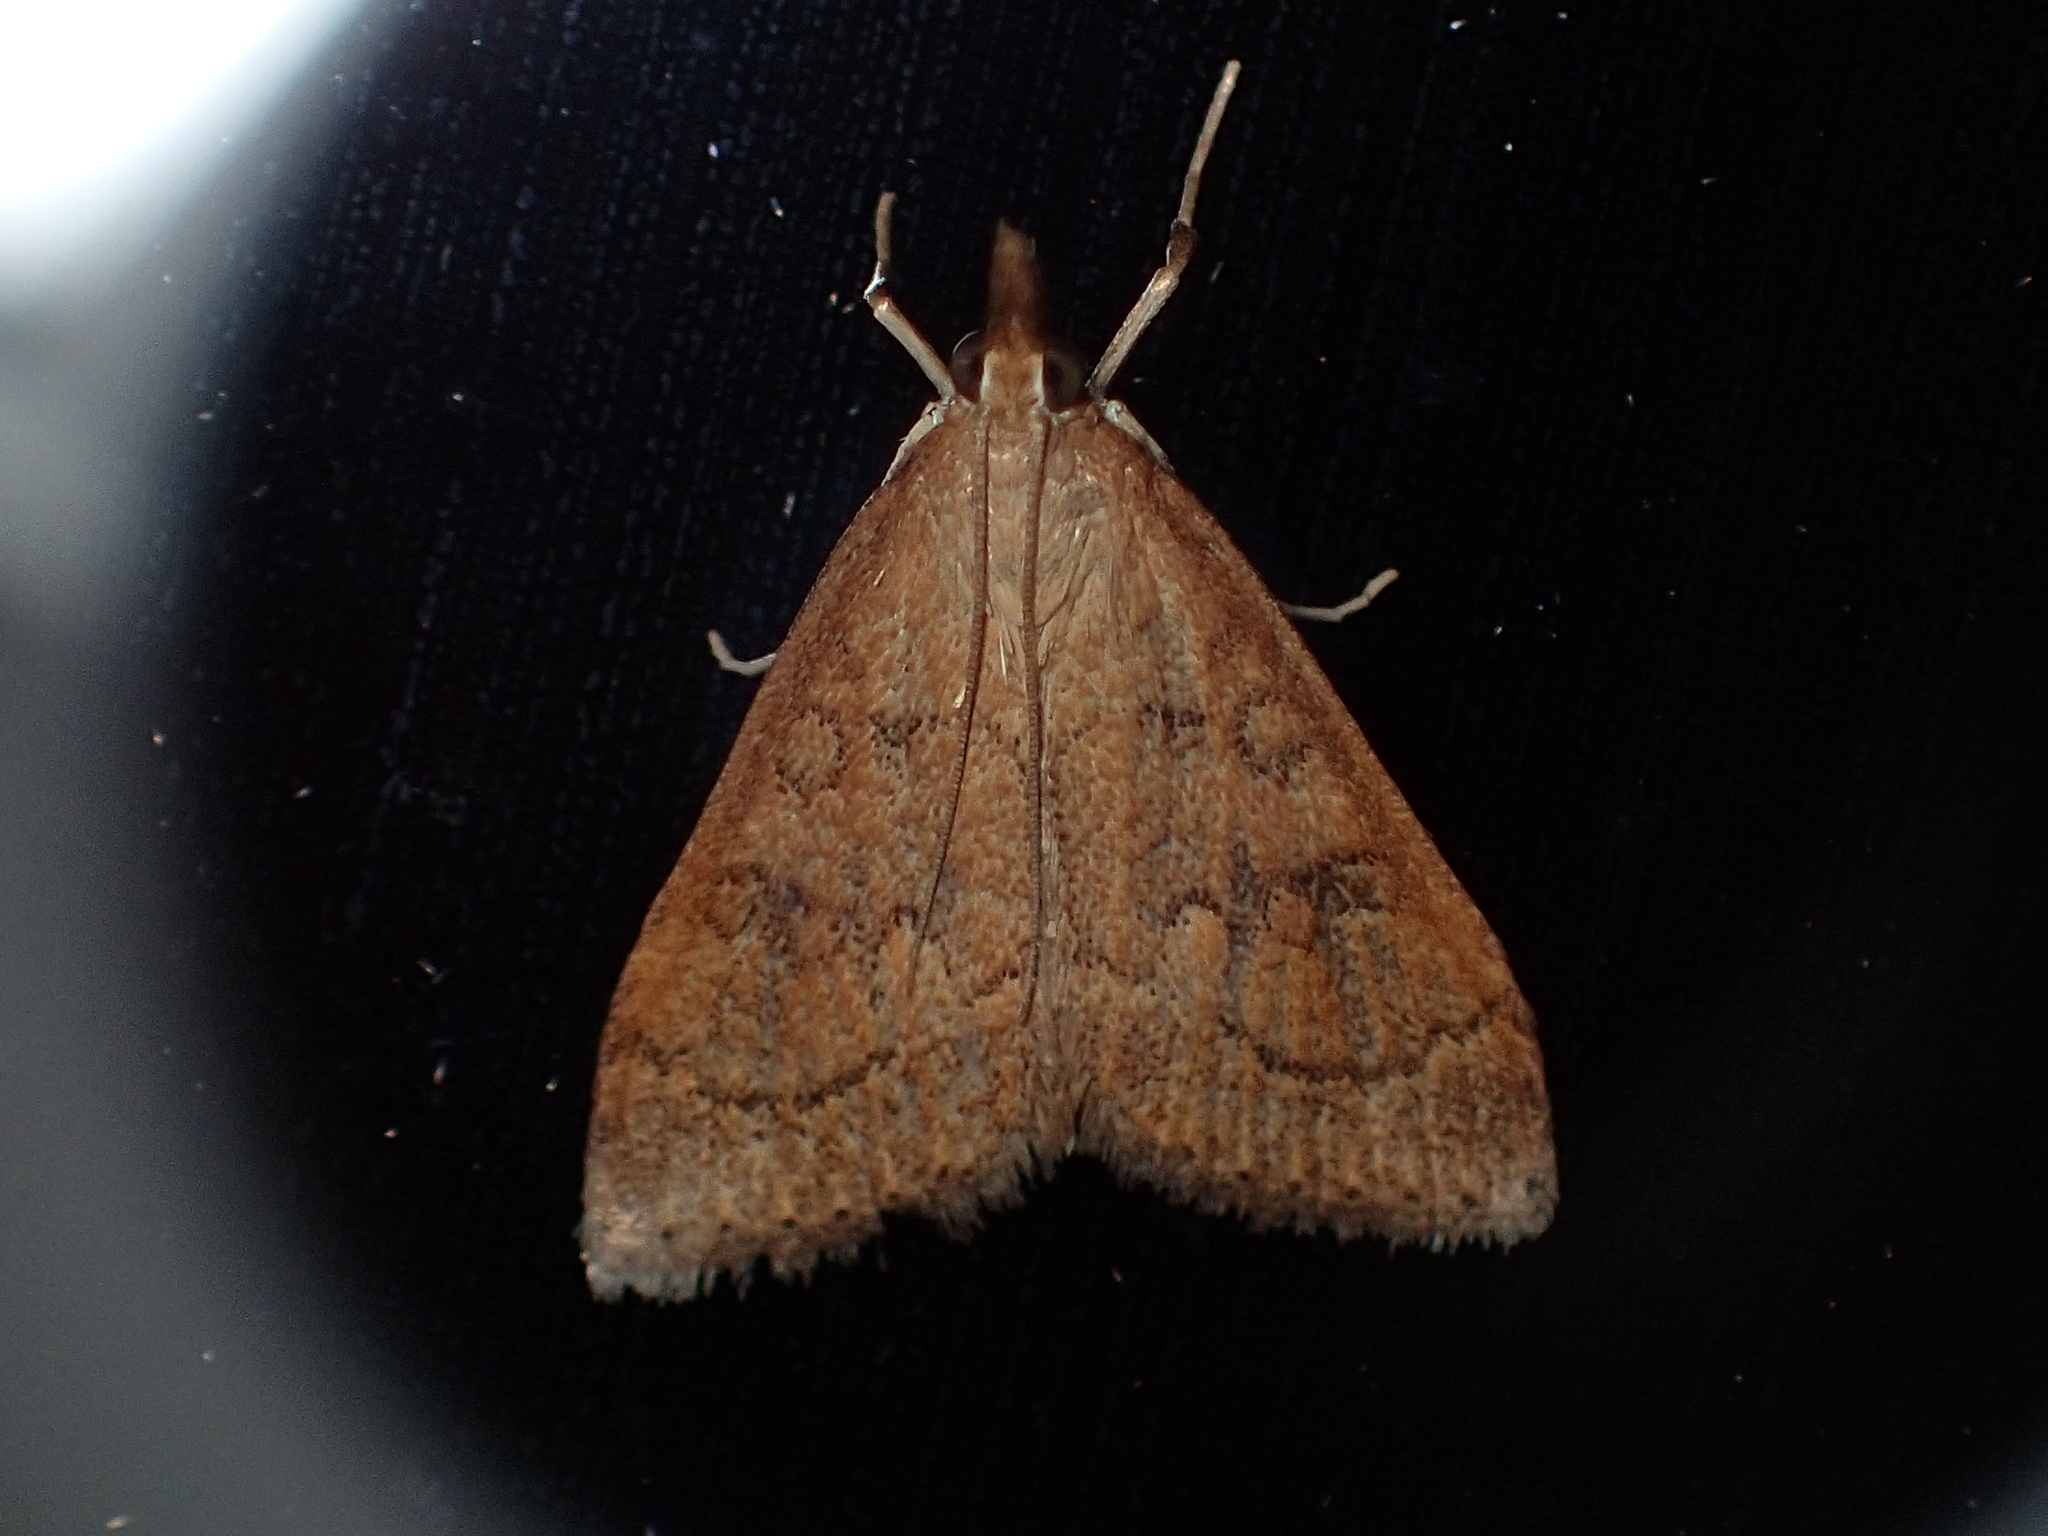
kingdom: Animalia
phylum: Arthropoda
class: Insecta
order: Lepidoptera
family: Crambidae
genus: Udea
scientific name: Udea rubigalis
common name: Celery leaftier moth
